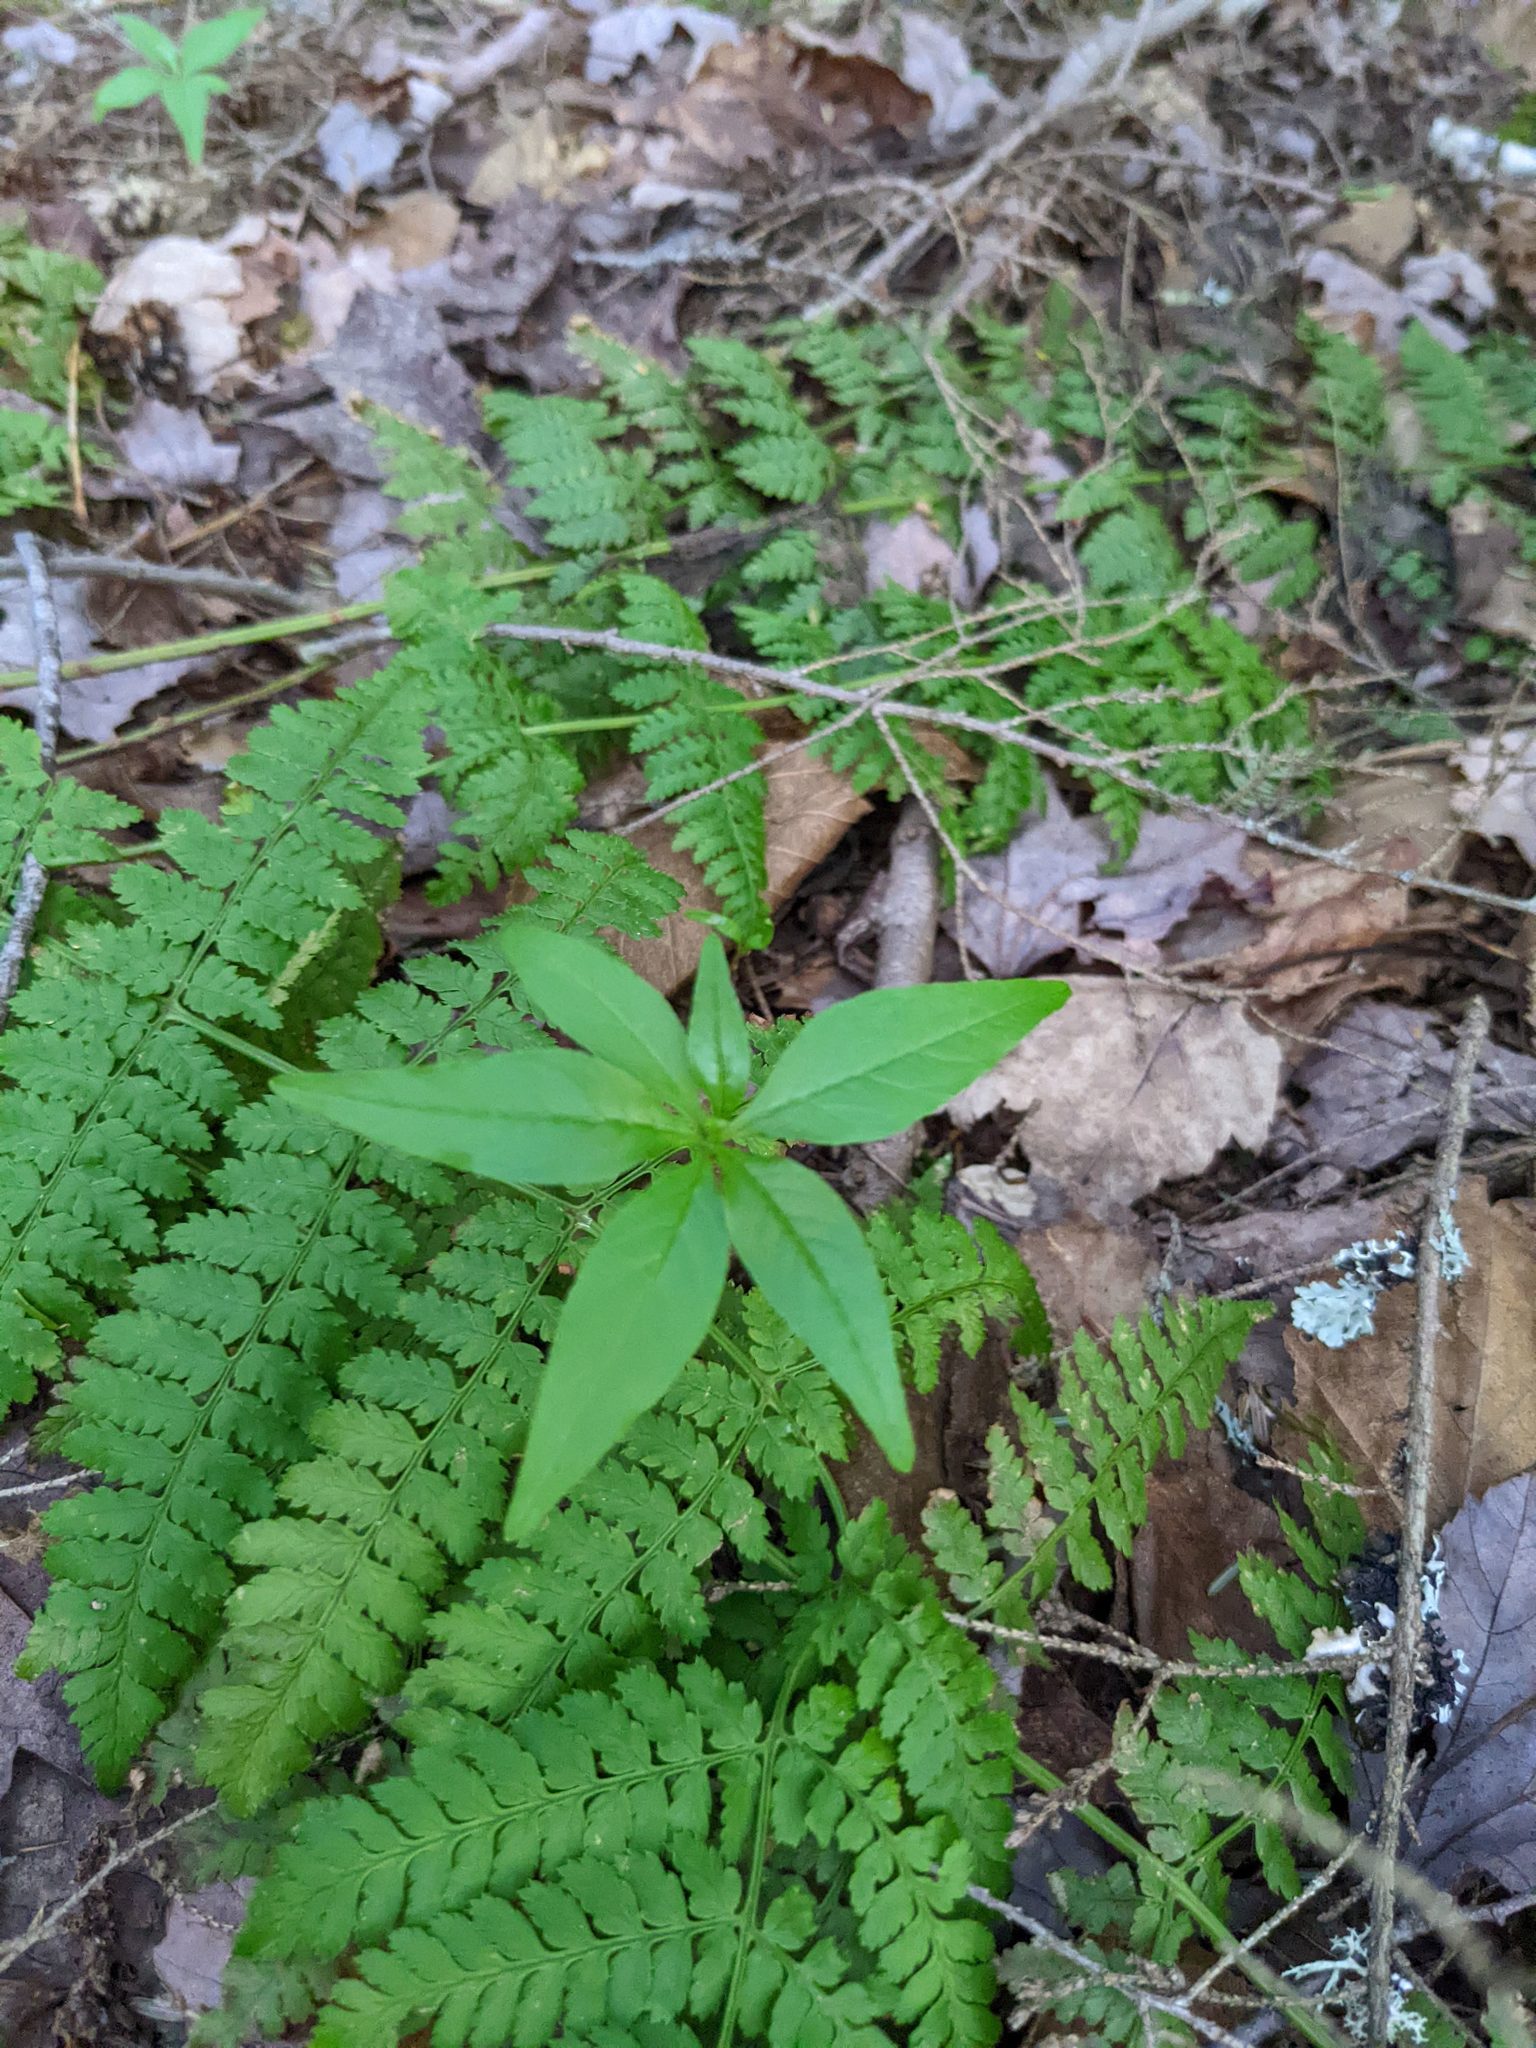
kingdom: Plantae
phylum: Tracheophyta
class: Magnoliopsida
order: Ericales
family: Primulaceae
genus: Lysimachia
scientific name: Lysimachia borealis
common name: American starflower
